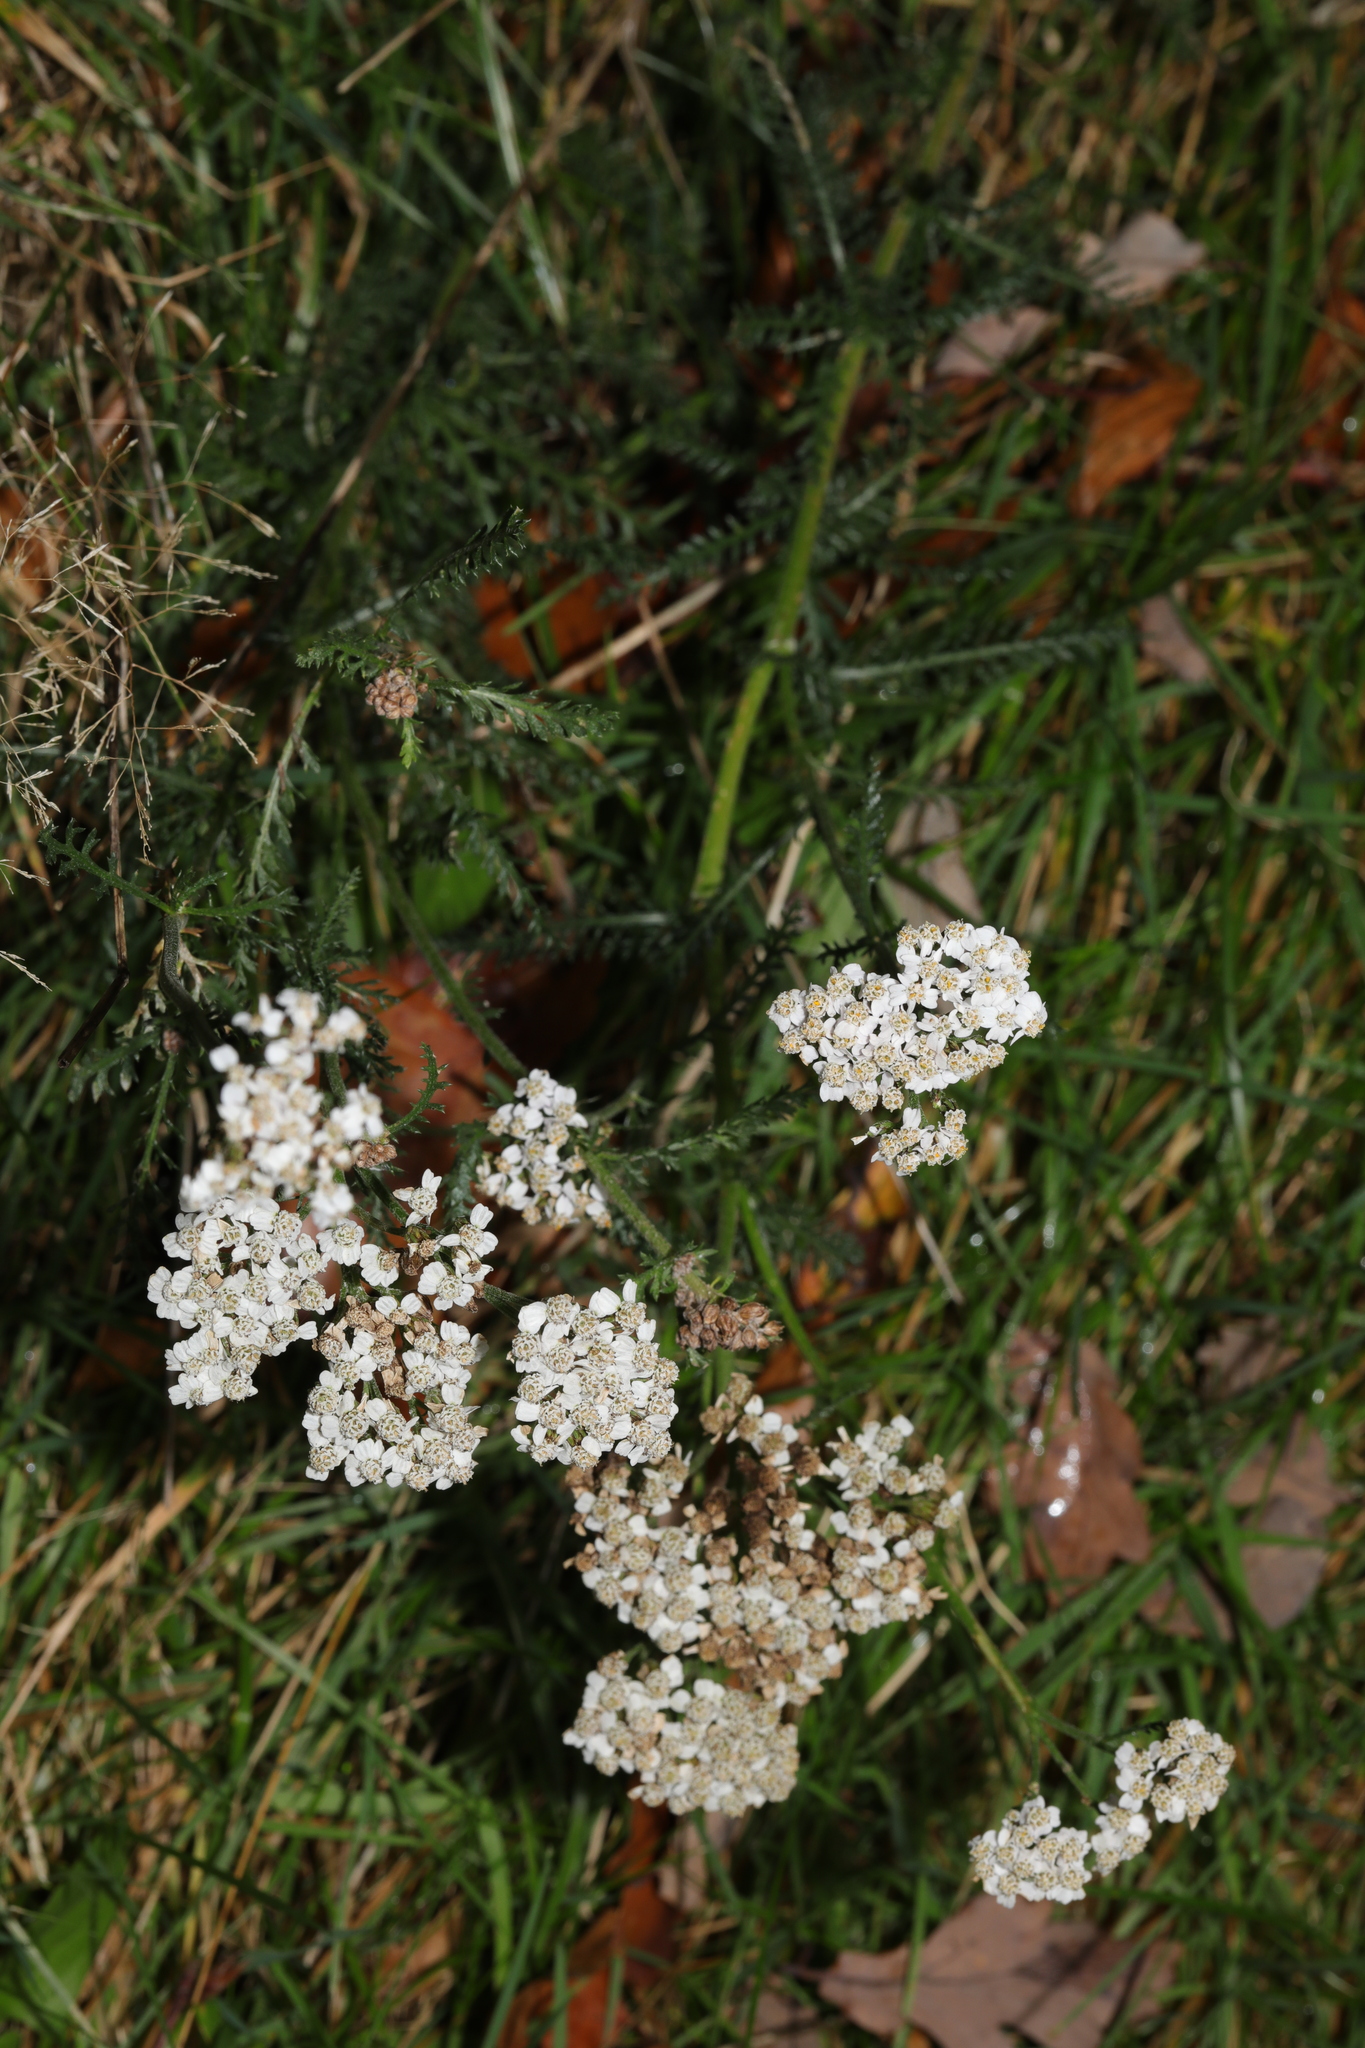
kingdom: Plantae
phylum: Tracheophyta
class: Magnoliopsida
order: Asterales
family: Asteraceae
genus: Achillea
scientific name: Achillea millefolium
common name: Yarrow
